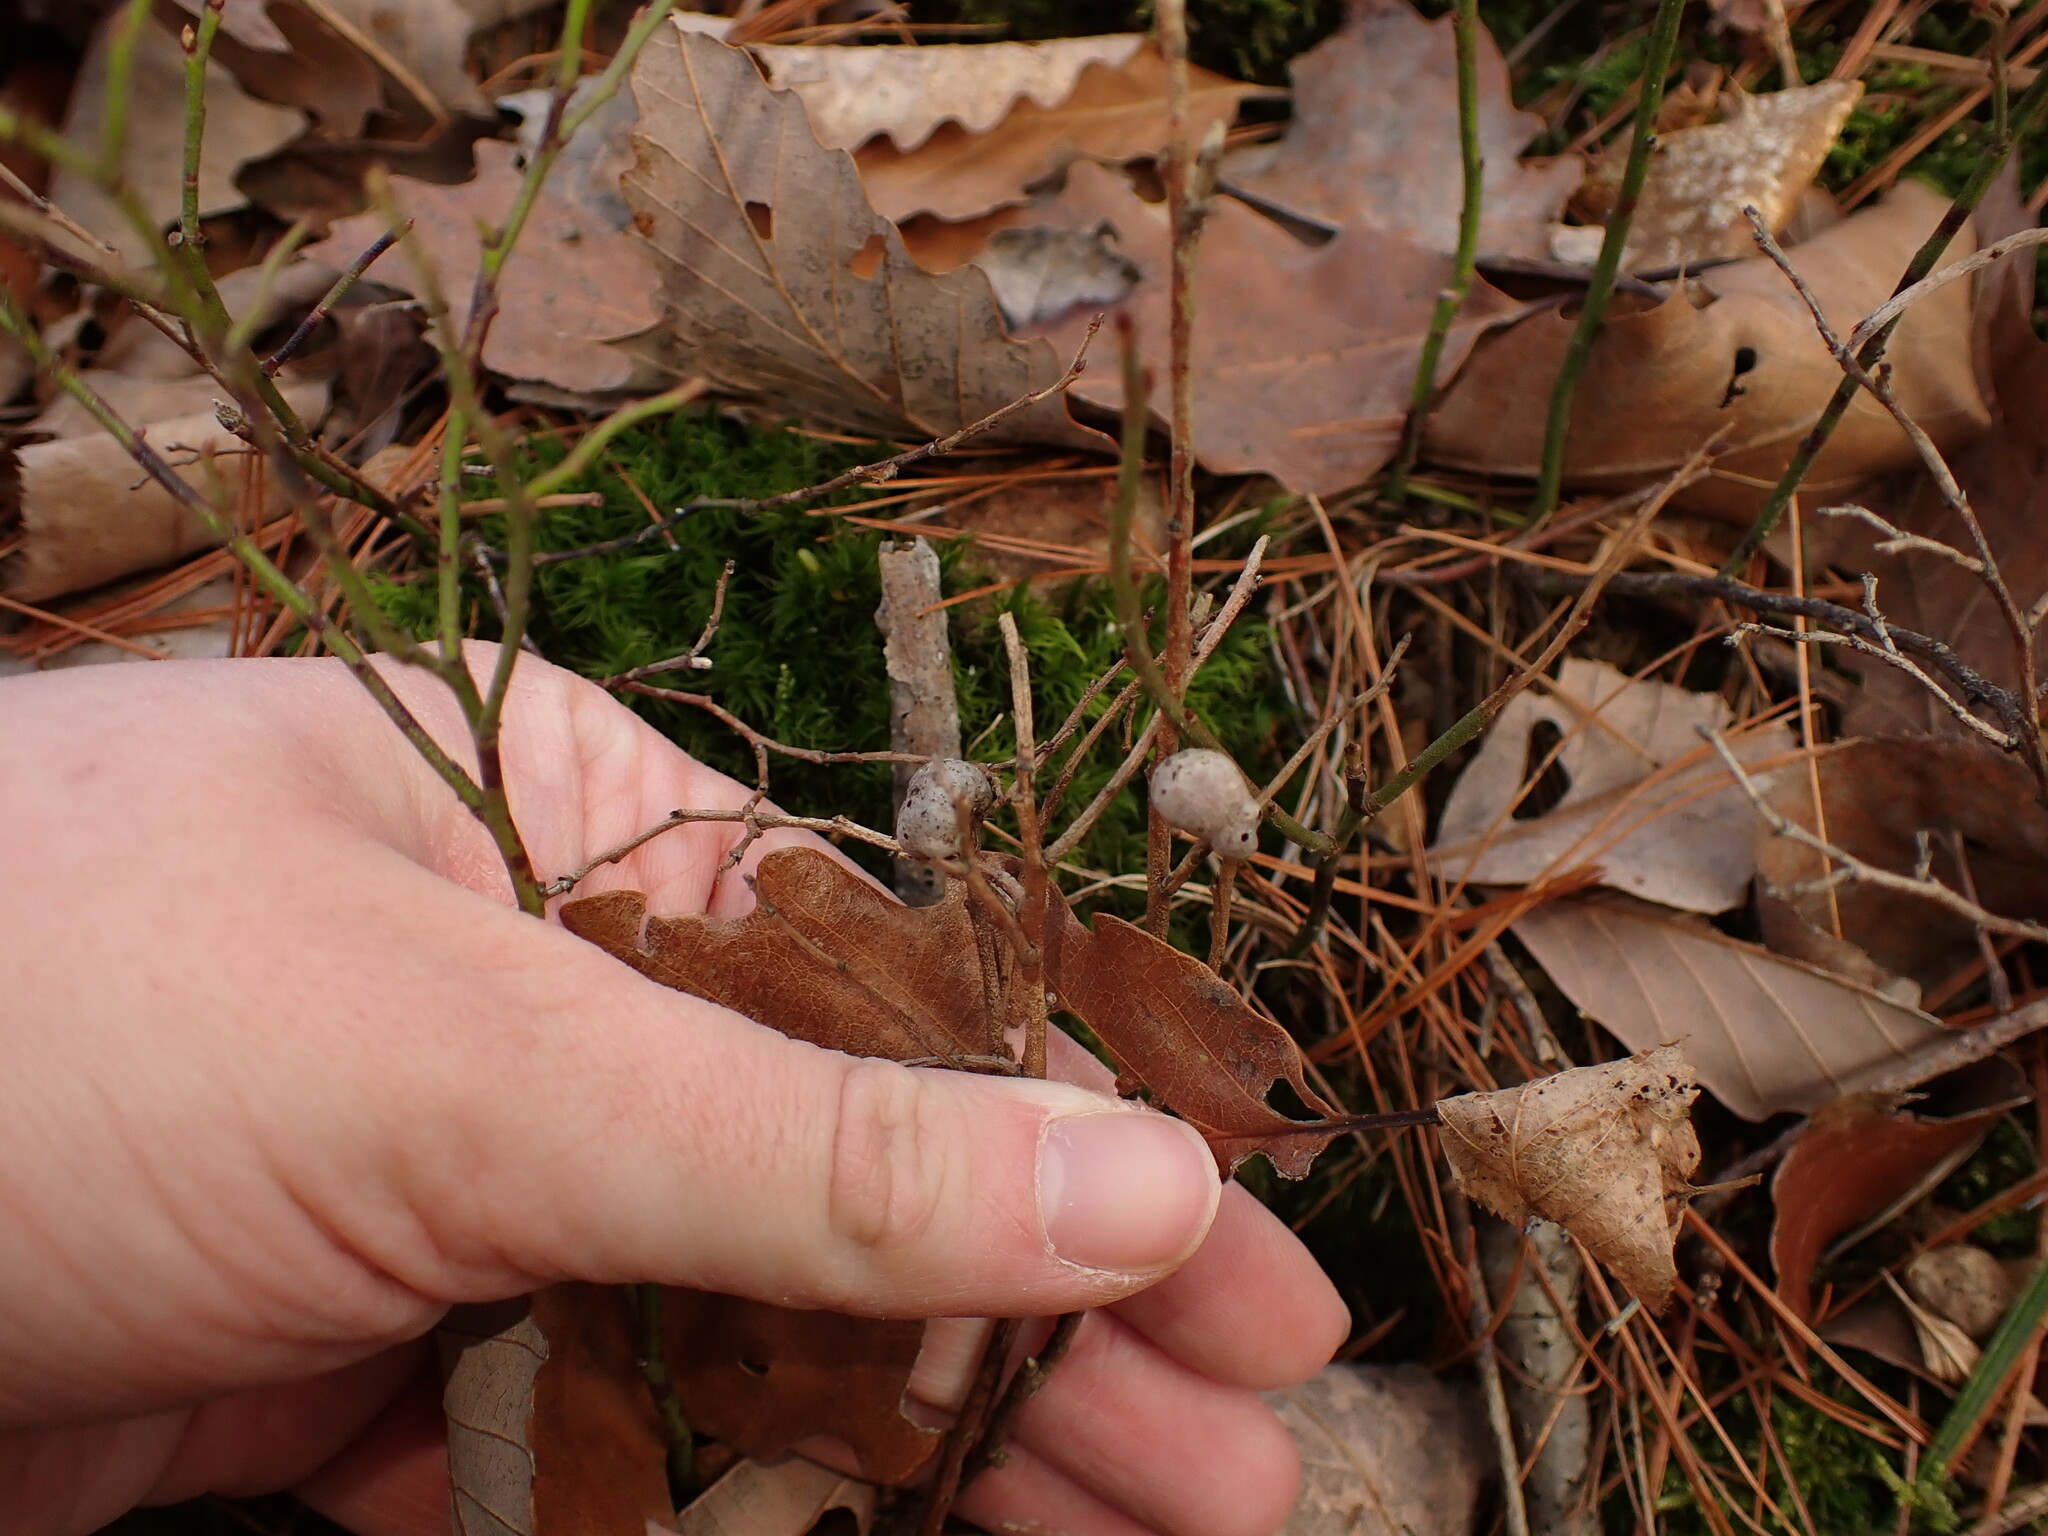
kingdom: Animalia
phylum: Arthropoda
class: Insecta
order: Hymenoptera
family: Pteromalidae
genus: Hemadas
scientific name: Hemadas nubilipennis
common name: Blueberry stem gall wasp
